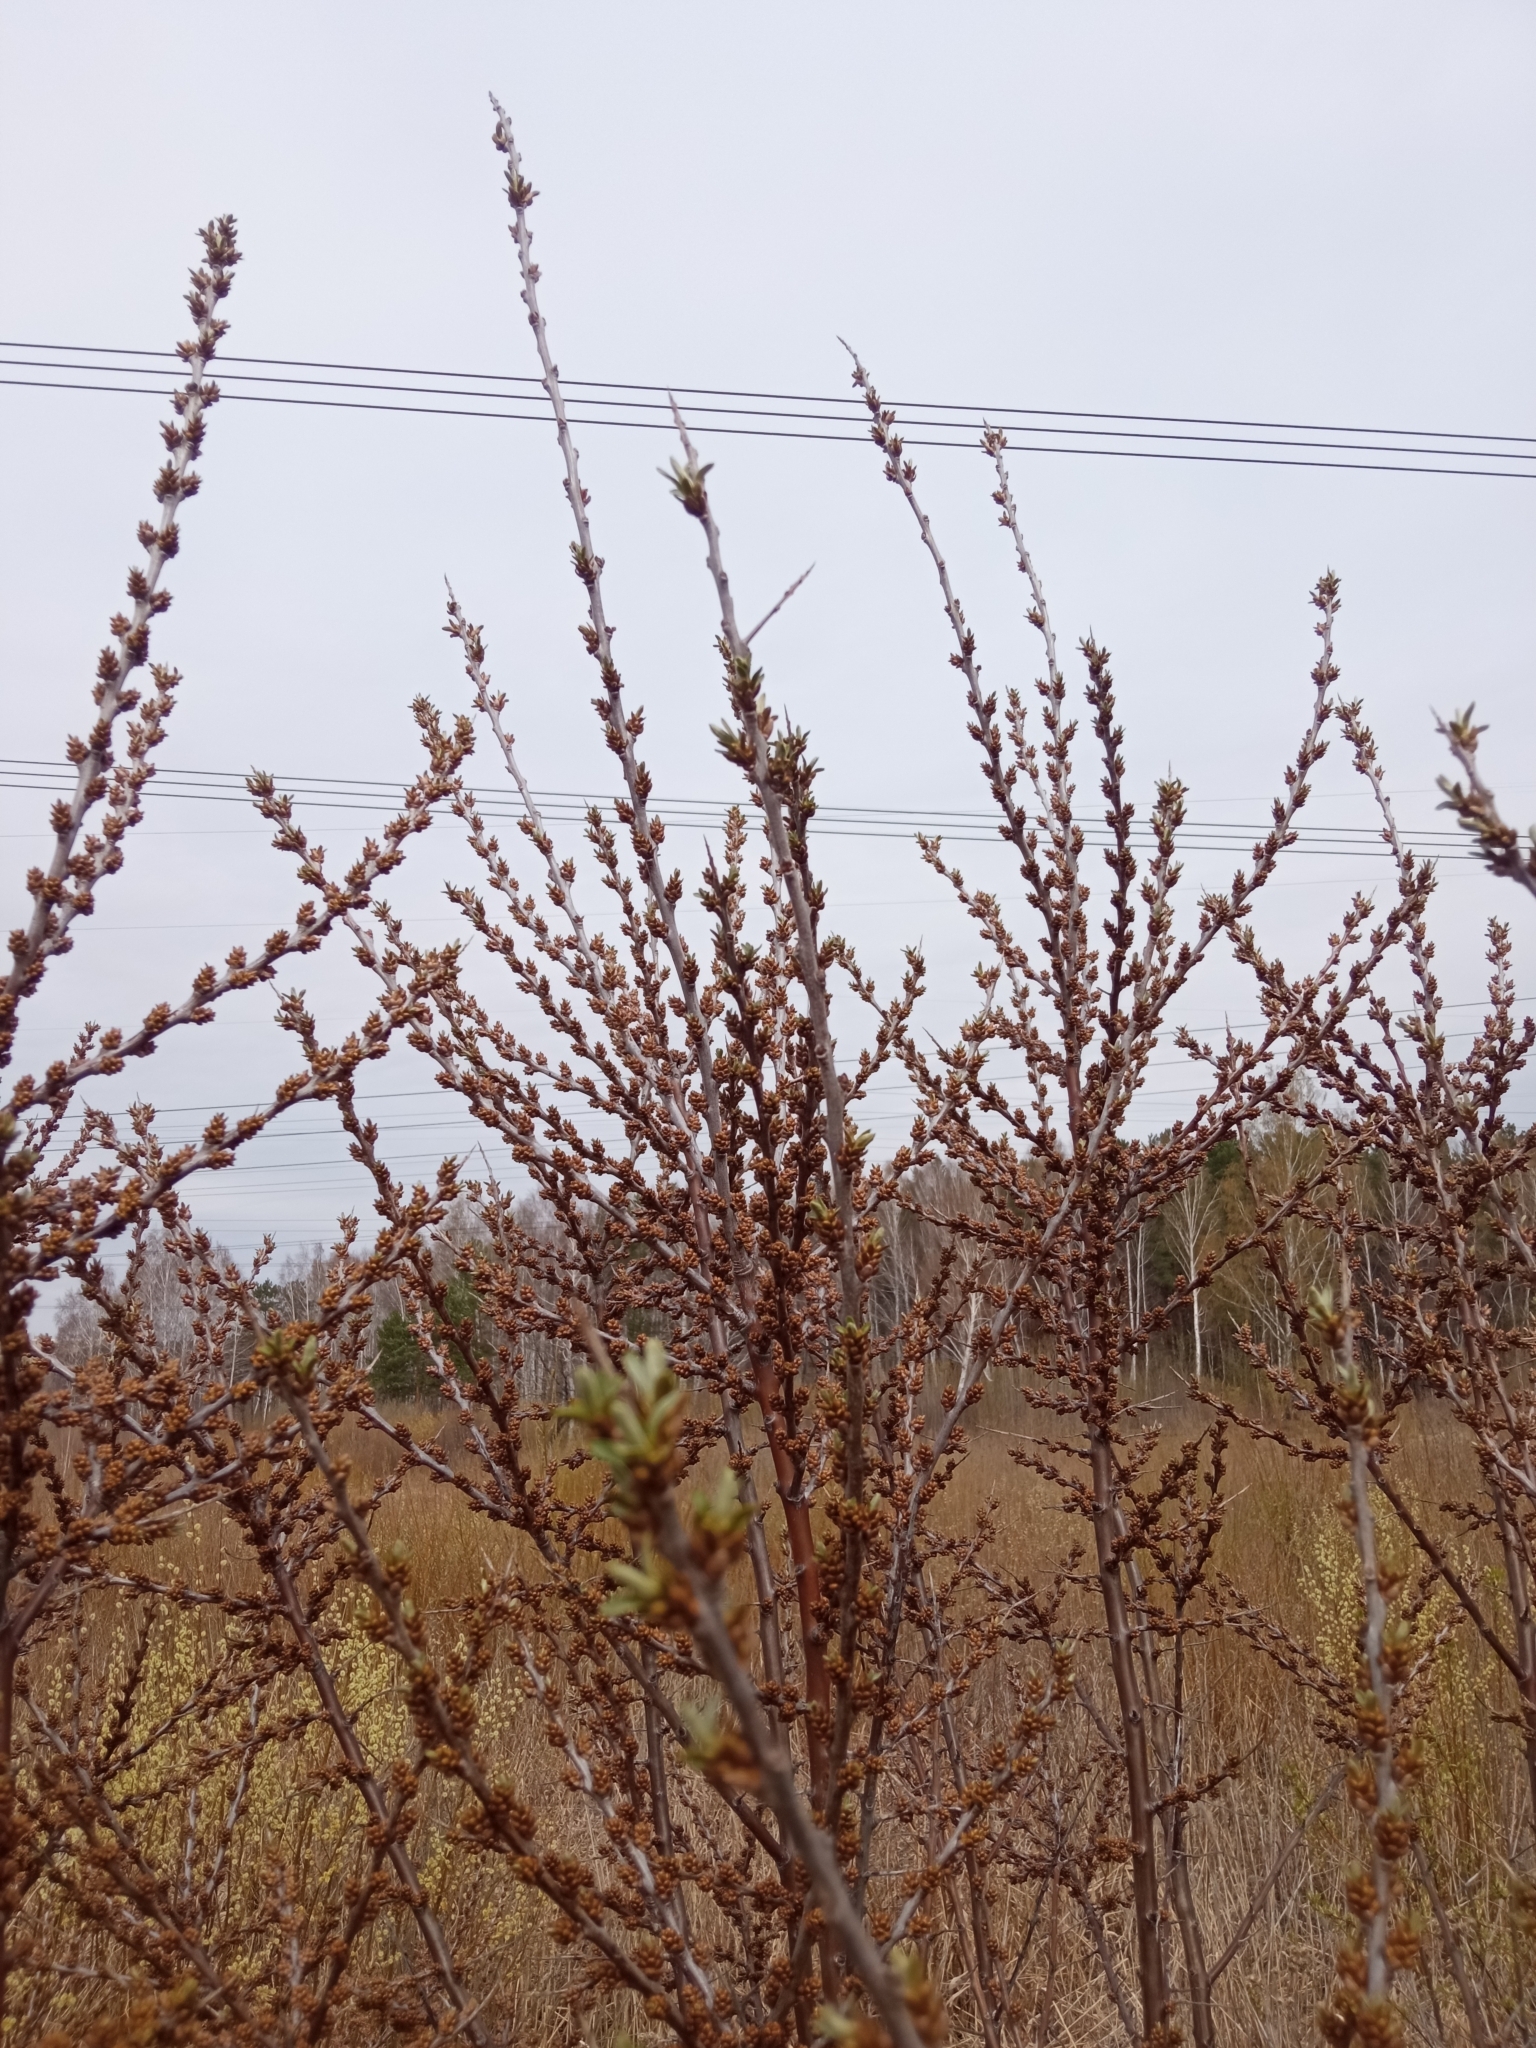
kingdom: Plantae
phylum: Tracheophyta
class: Magnoliopsida
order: Rosales
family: Elaeagnaceae
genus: Hippophae
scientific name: Hippophae rhamnoides
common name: Sea-buckthorn
